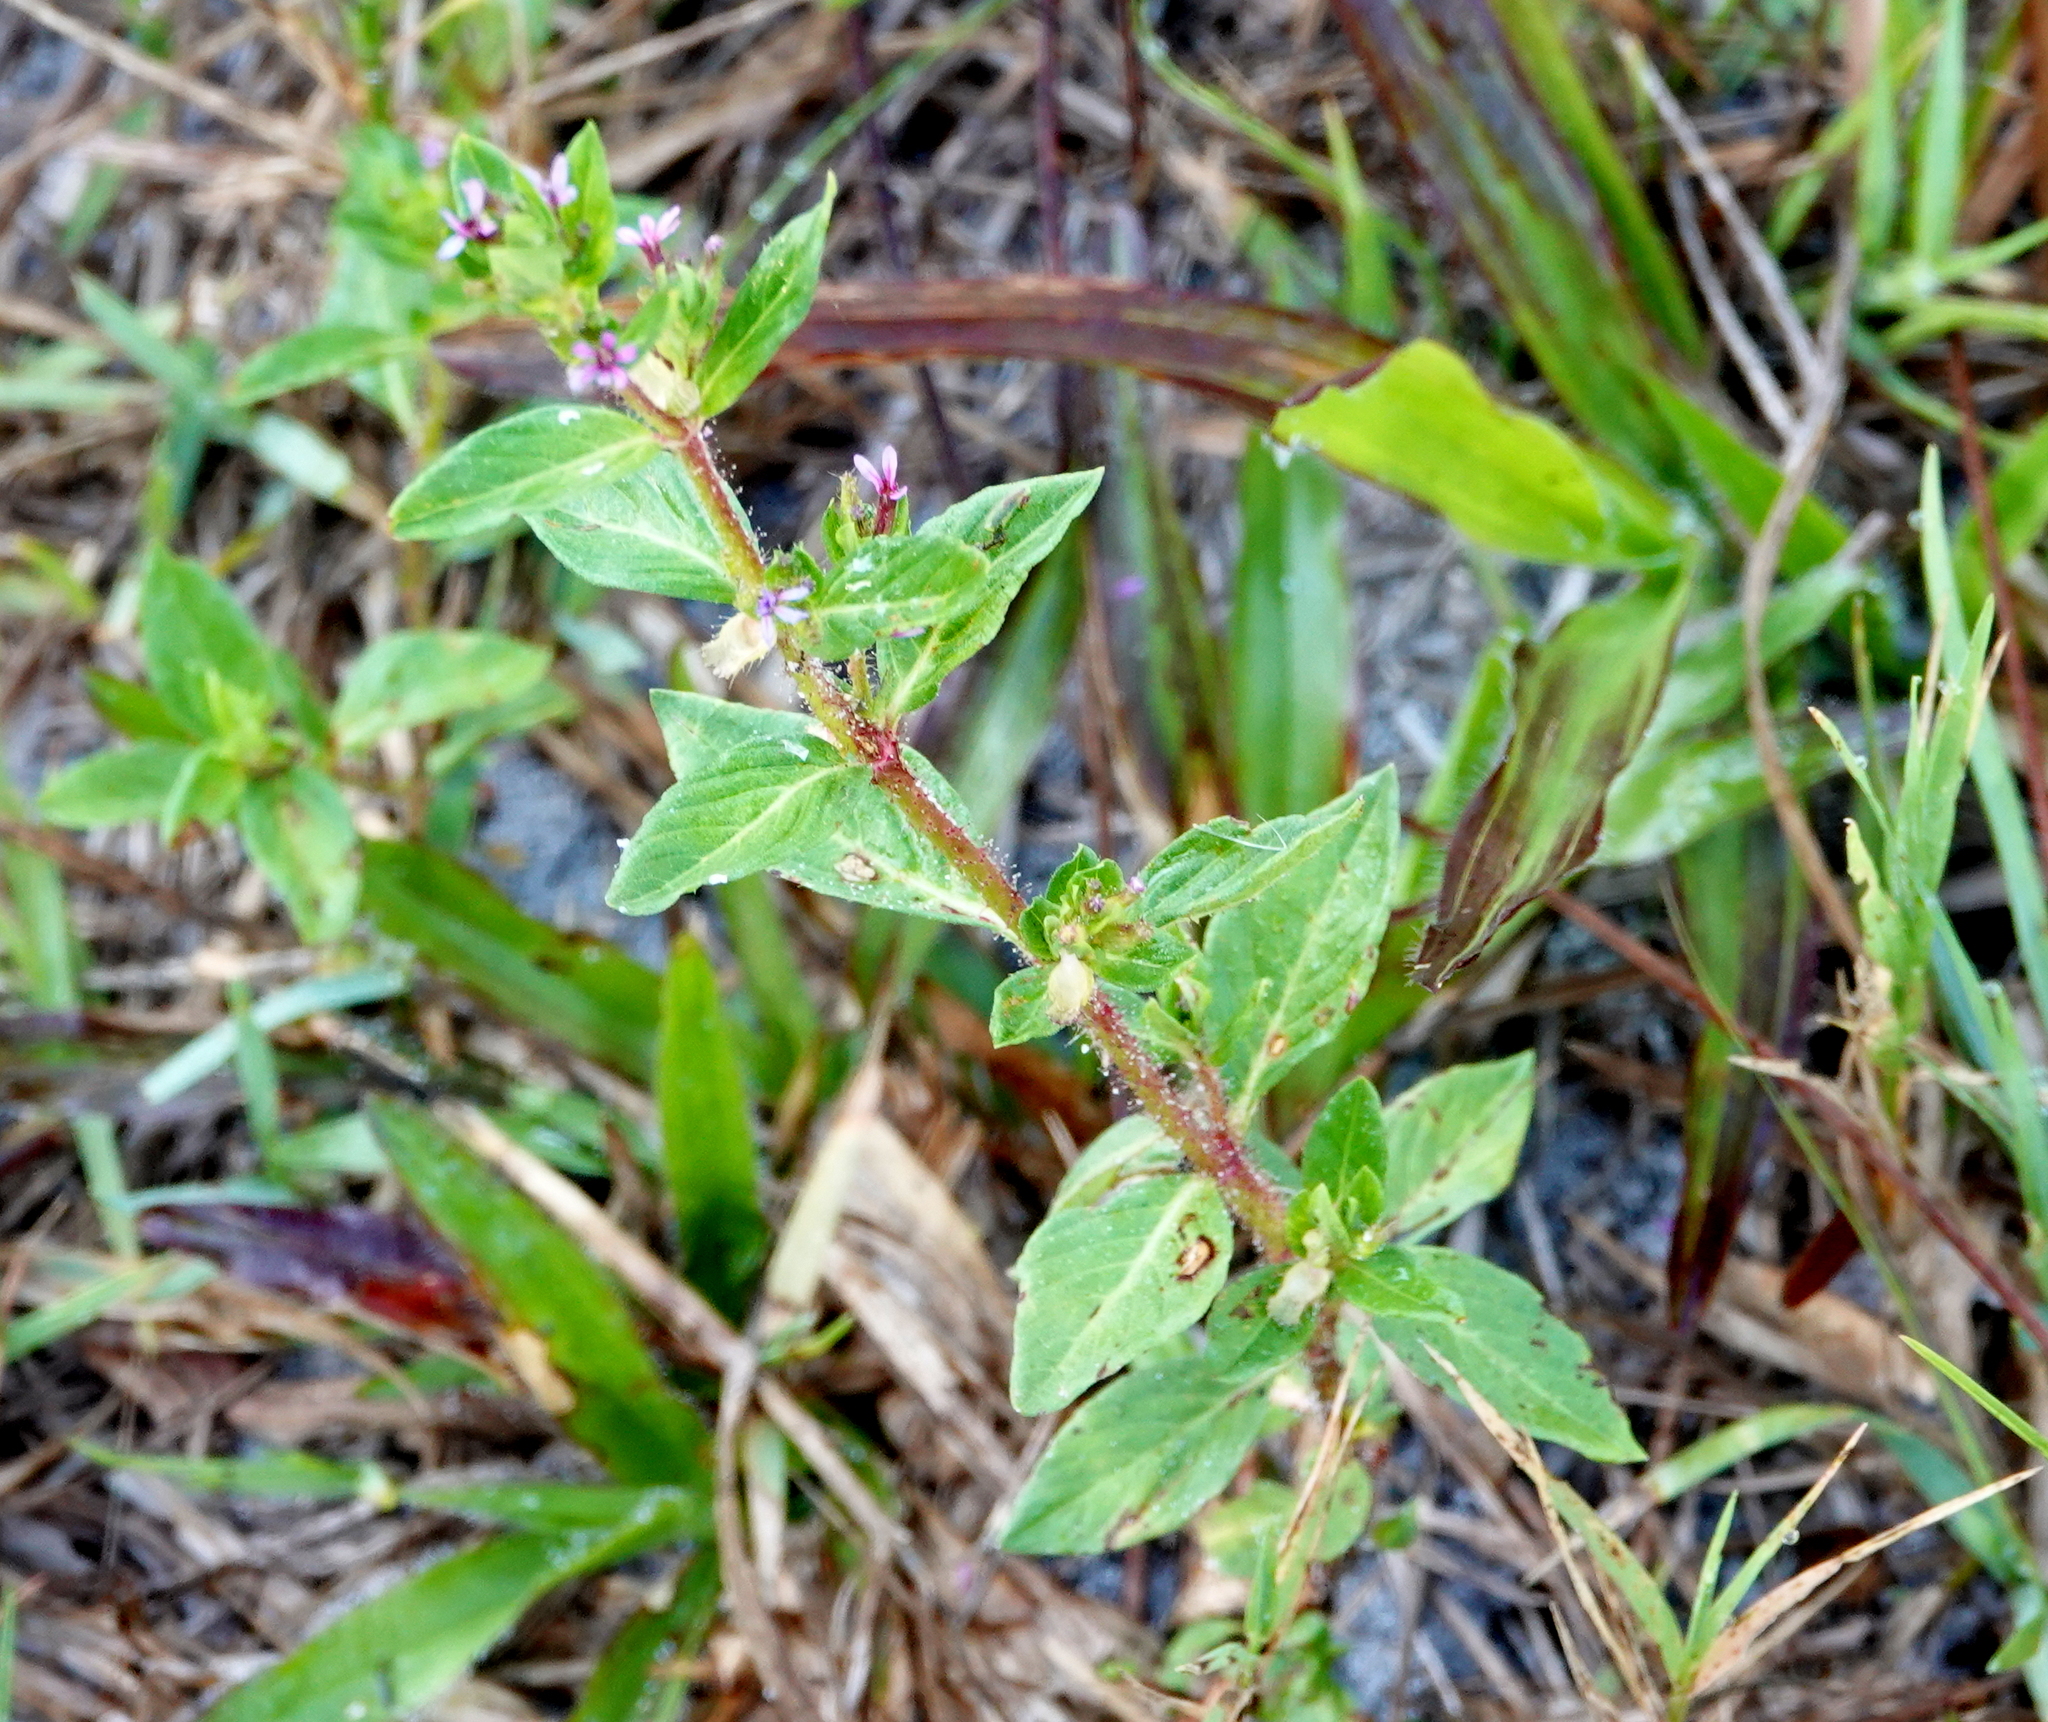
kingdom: Plantae
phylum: Tracheophyta
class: Magnoliopsida
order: Myrtales
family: Lythraceae
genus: Cuphea
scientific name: Cuphea carthagenensis
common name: Colombian waxweed
